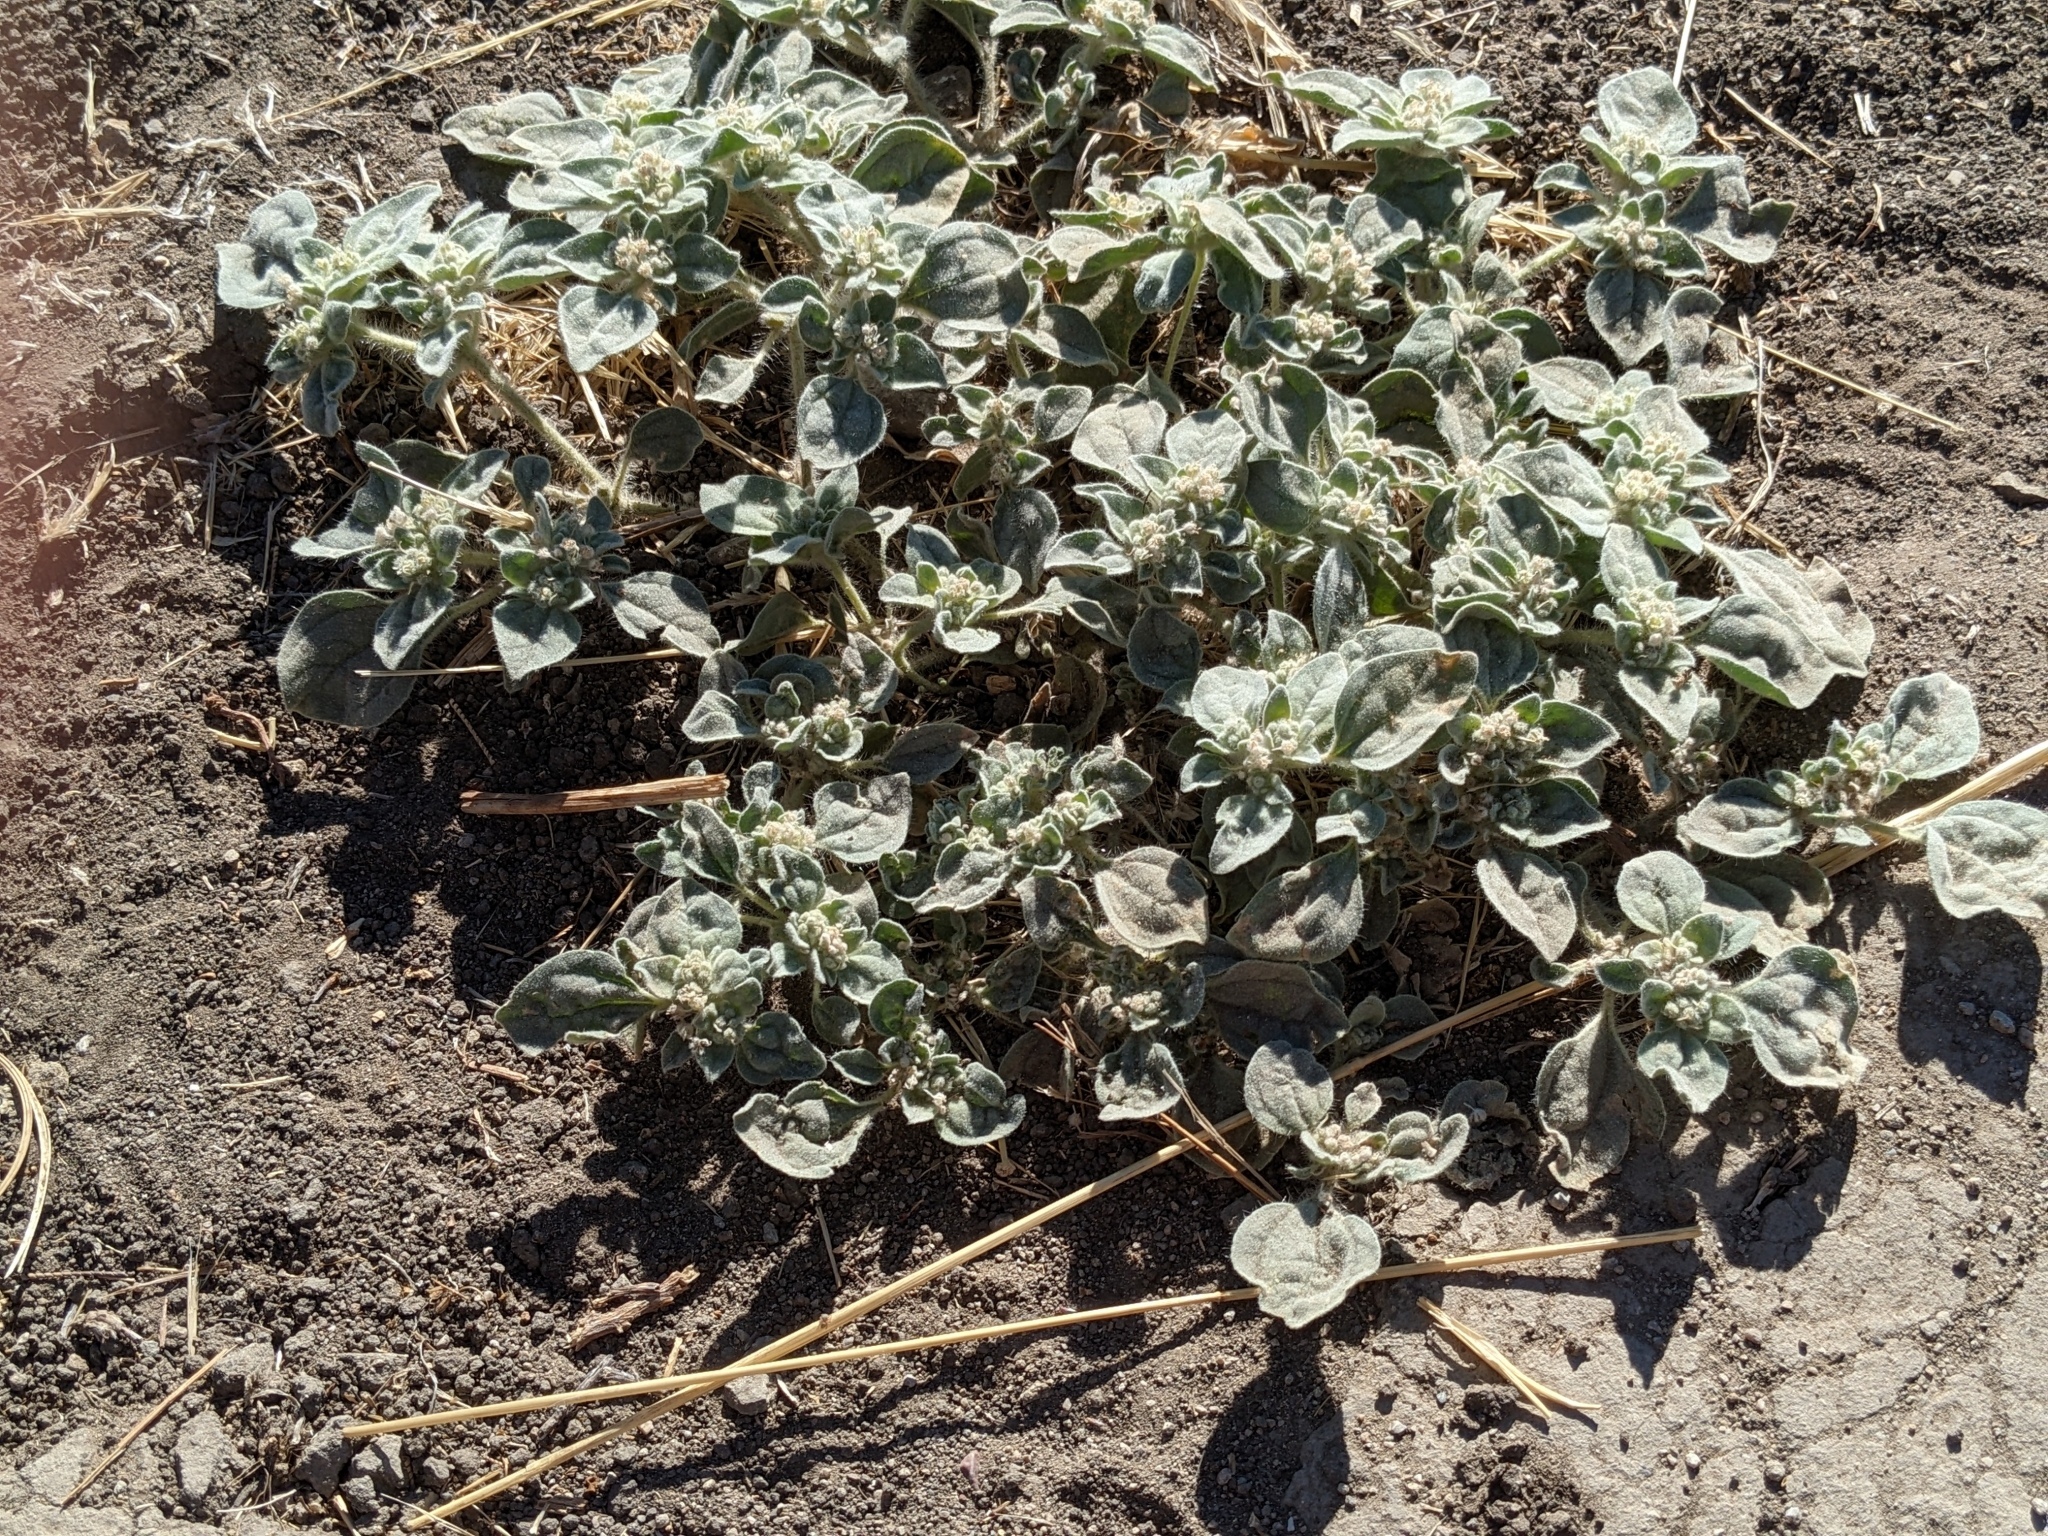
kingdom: Plantae
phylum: Tracheophyta
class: Magnoliopsida
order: Malpighiales
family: Euphorbiaceae
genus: Croton
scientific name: Croton setiger
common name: Dove weed
